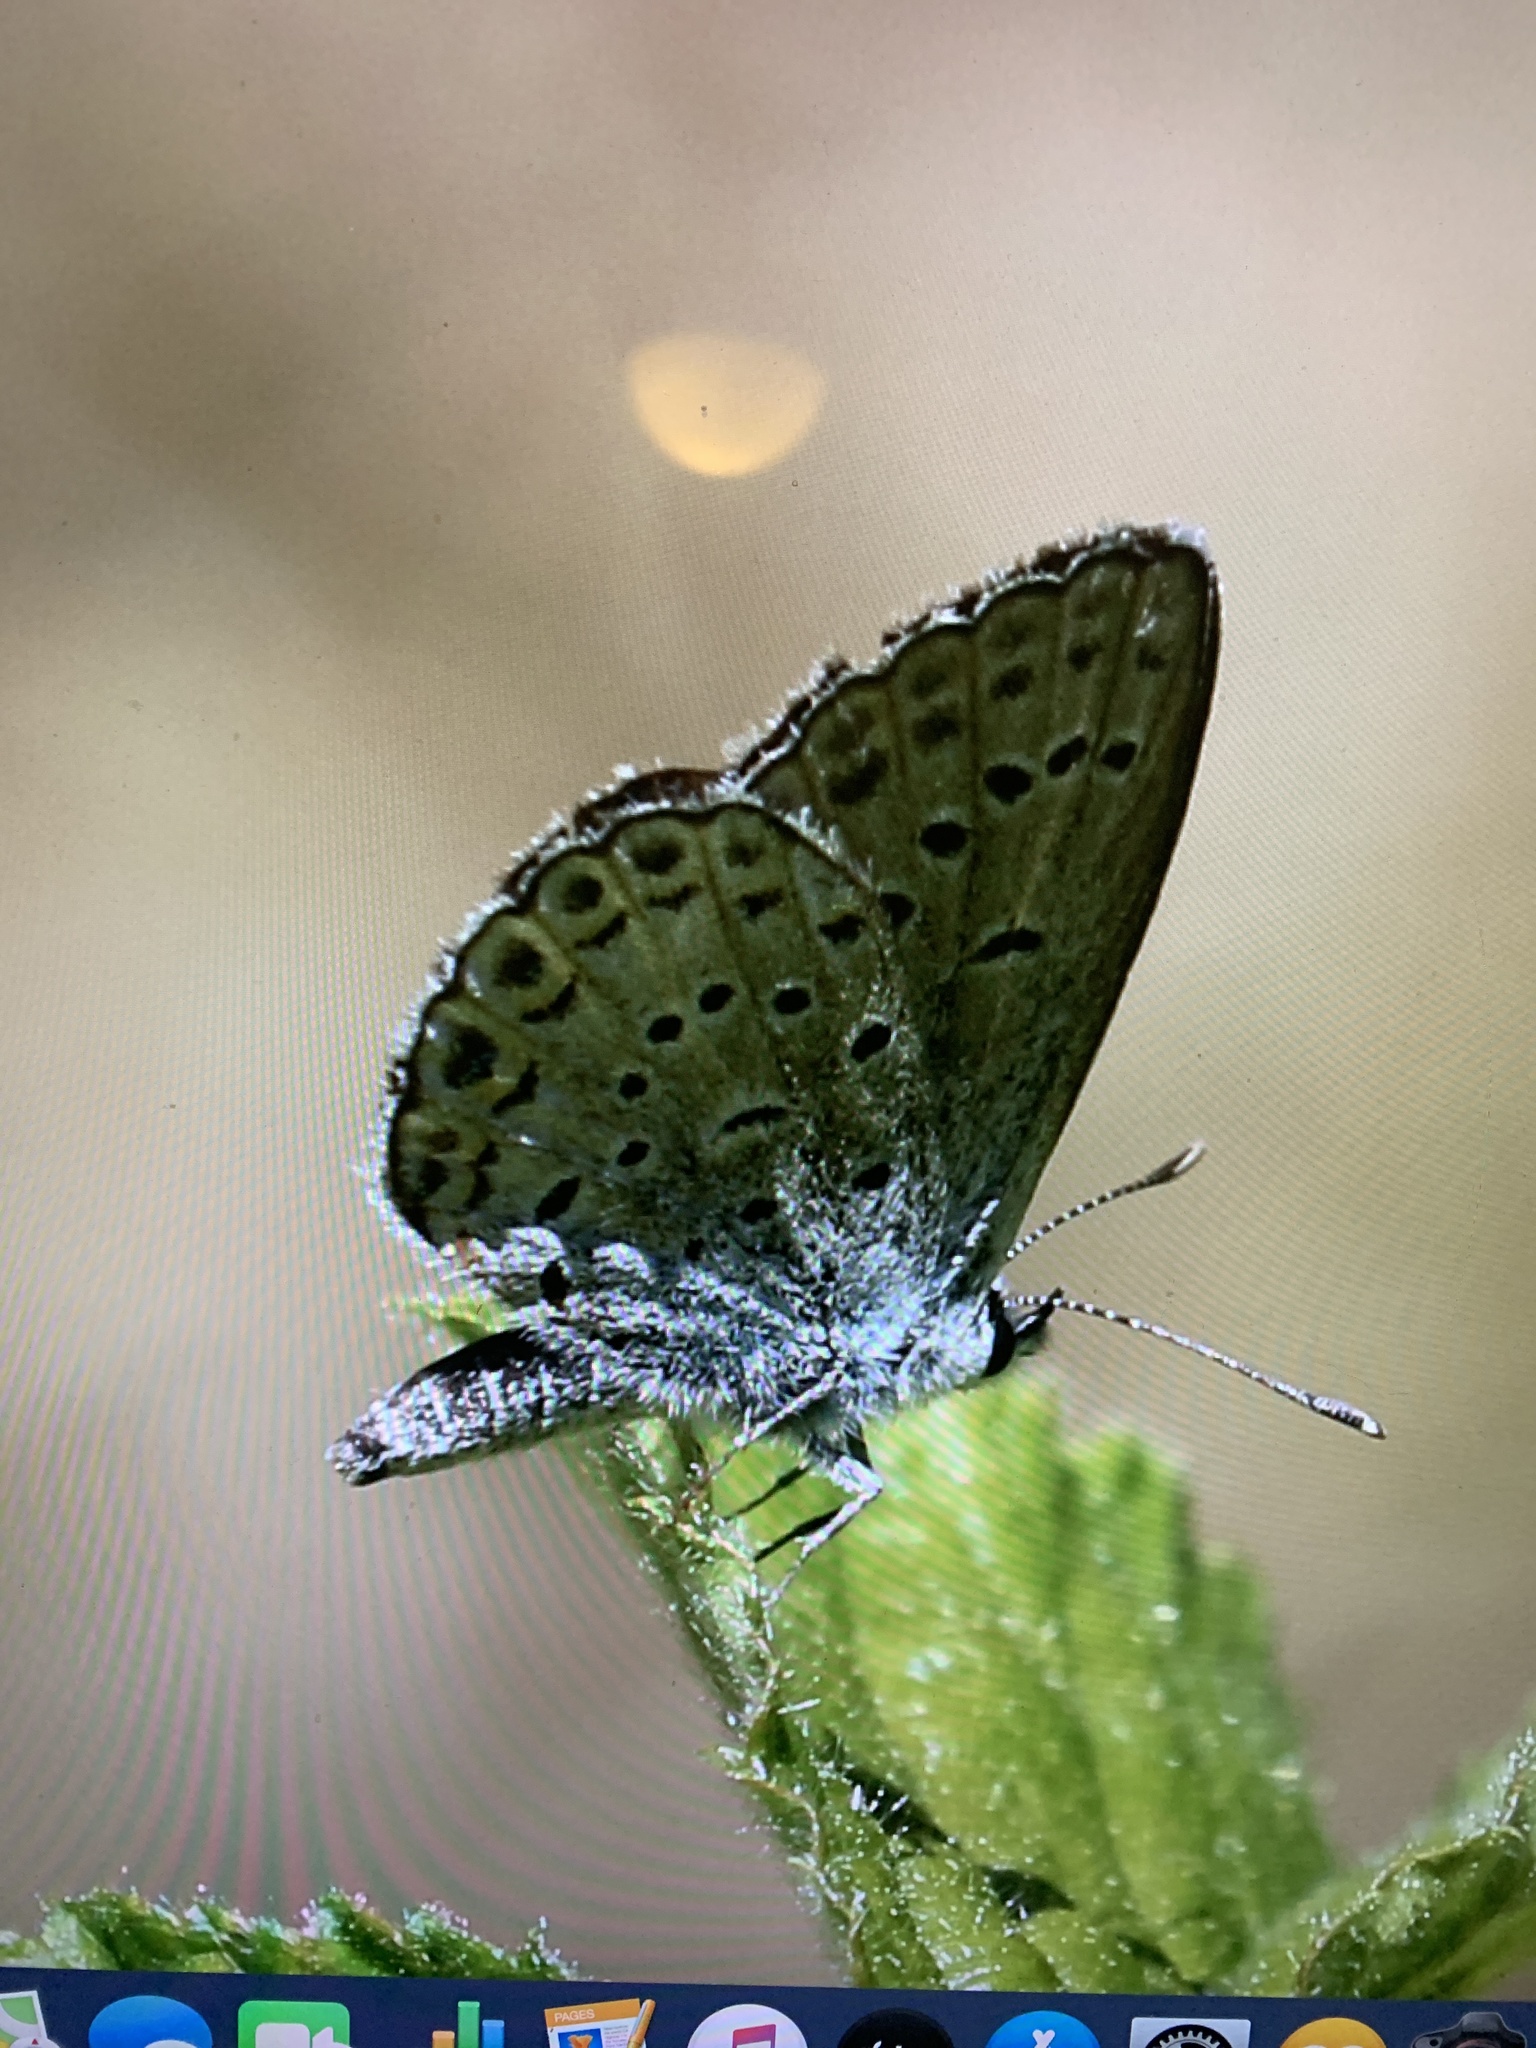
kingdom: Animalia
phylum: Arthropoda
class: Insecta
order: Lepidoptera
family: Lycaenidae
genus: Plebejus
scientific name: Plebejus samuelis
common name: Karner blue
